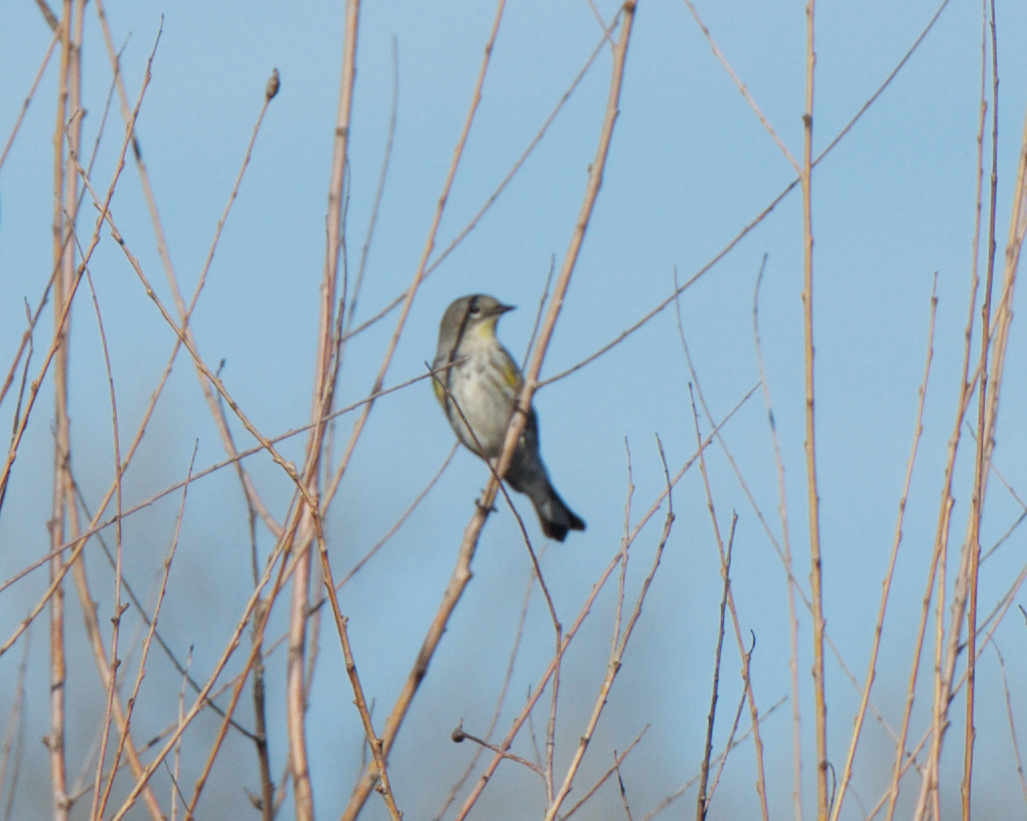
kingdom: Animalia
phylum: Chordata
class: Aves
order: Passeriformes
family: Parulidae
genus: Setophaga
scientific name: Setophaga coronata
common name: Myrtle warbler
